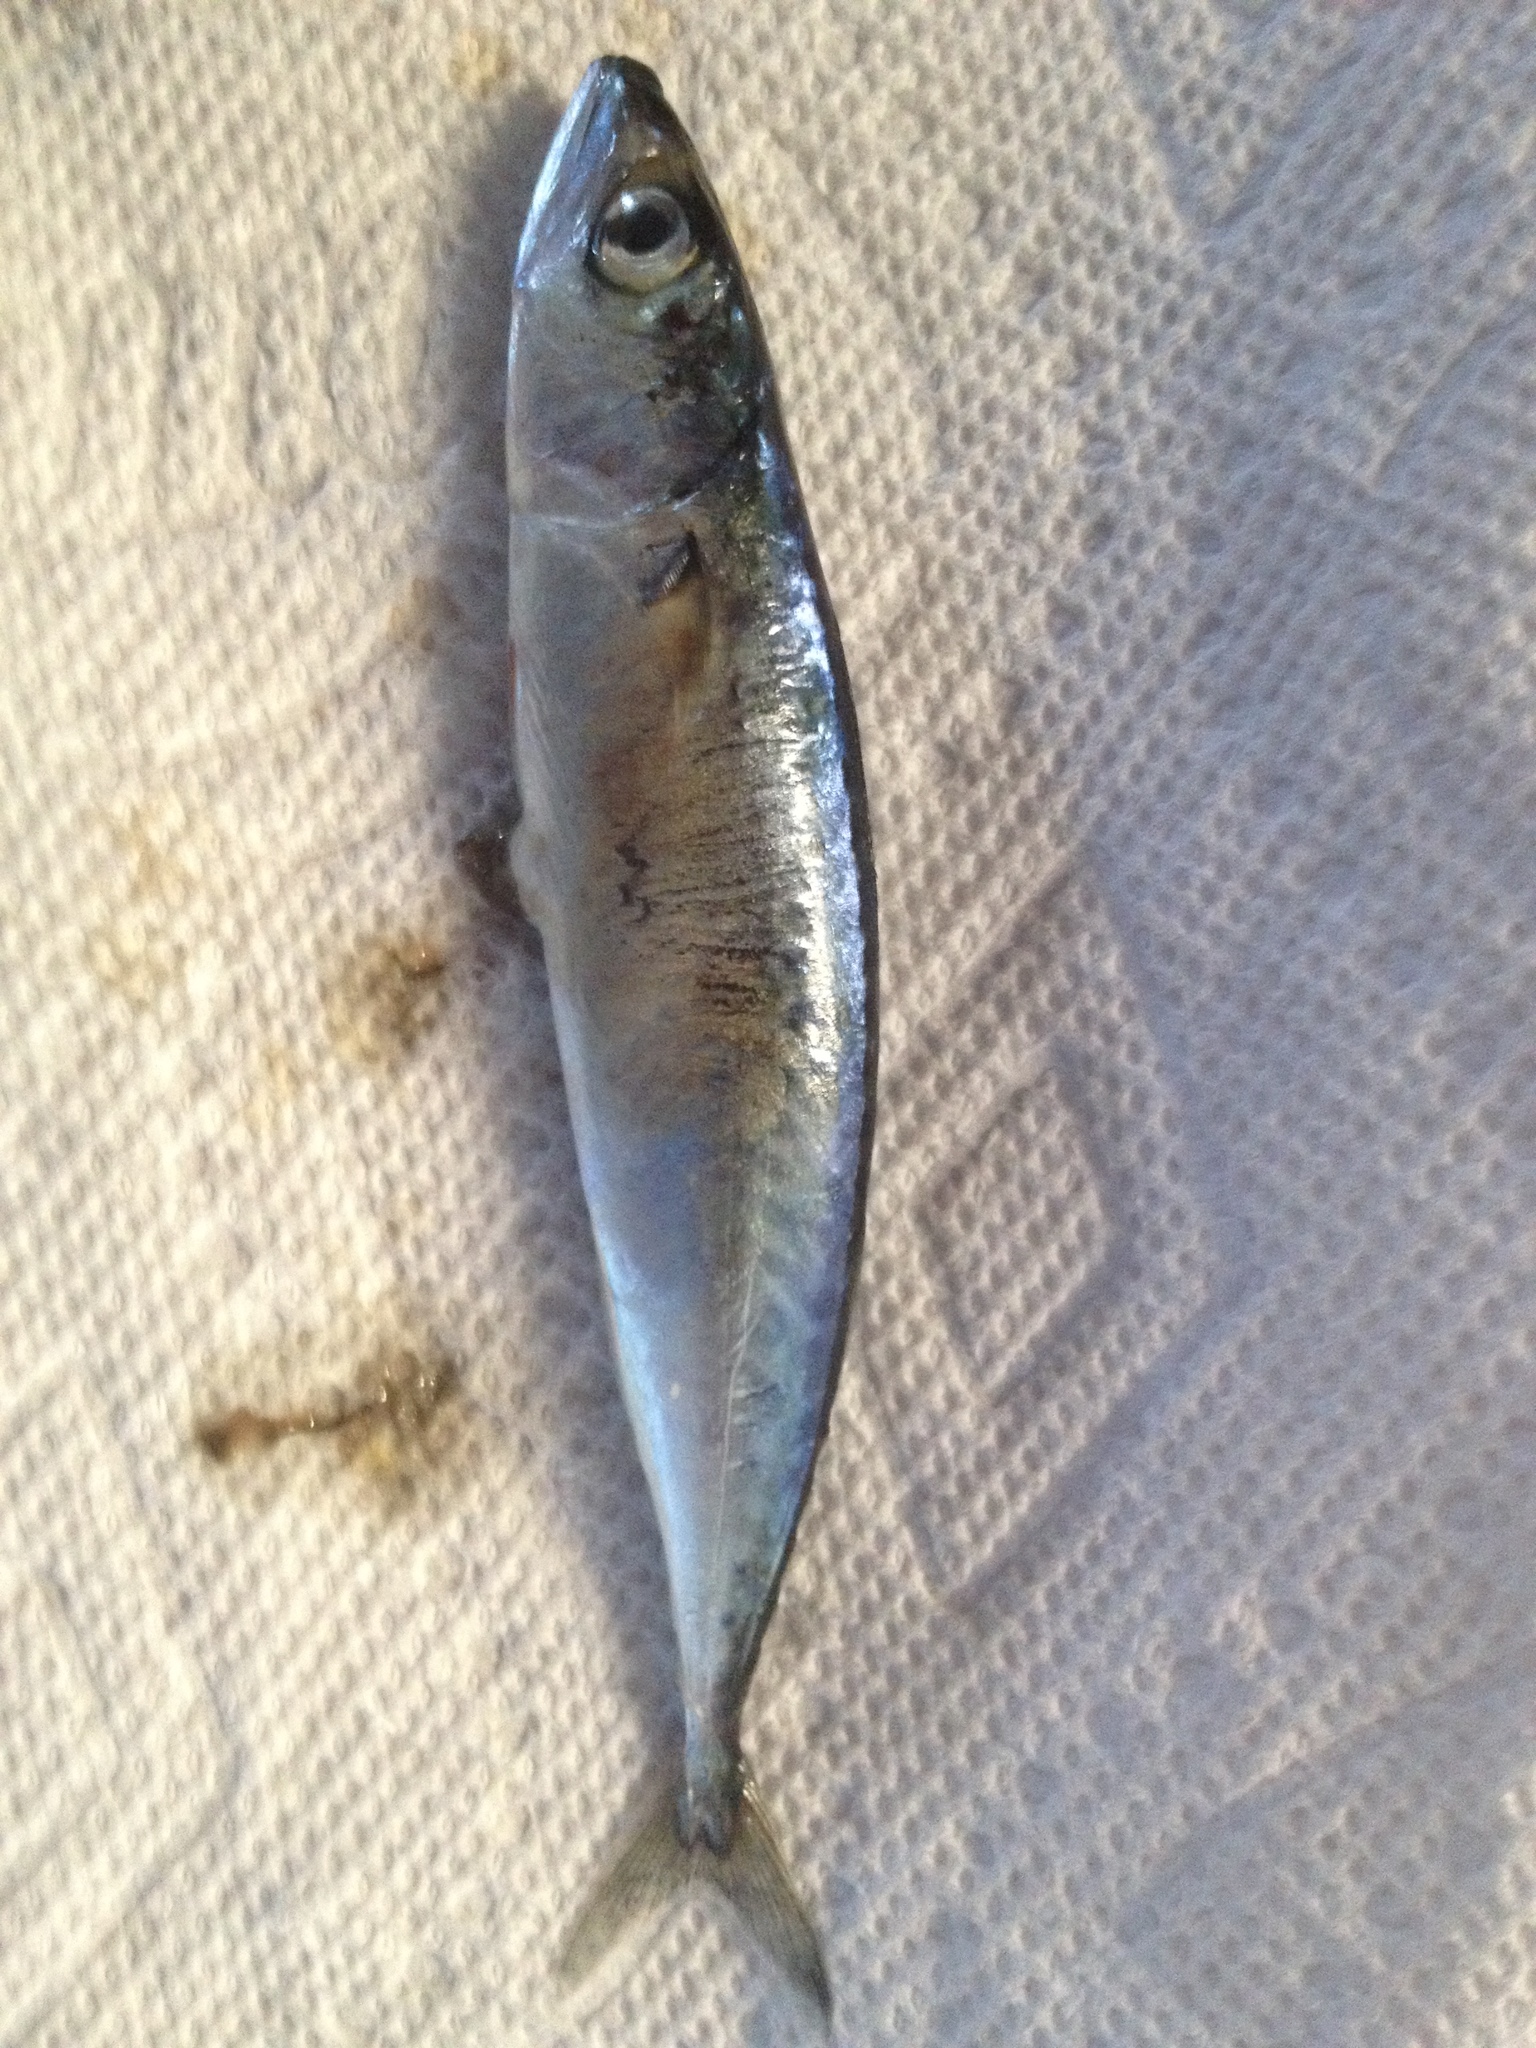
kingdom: Animalia
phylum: Chordata
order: Perciformes
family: Scombridae
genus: Scomber
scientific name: Scomber scombrus
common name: Mackerel
